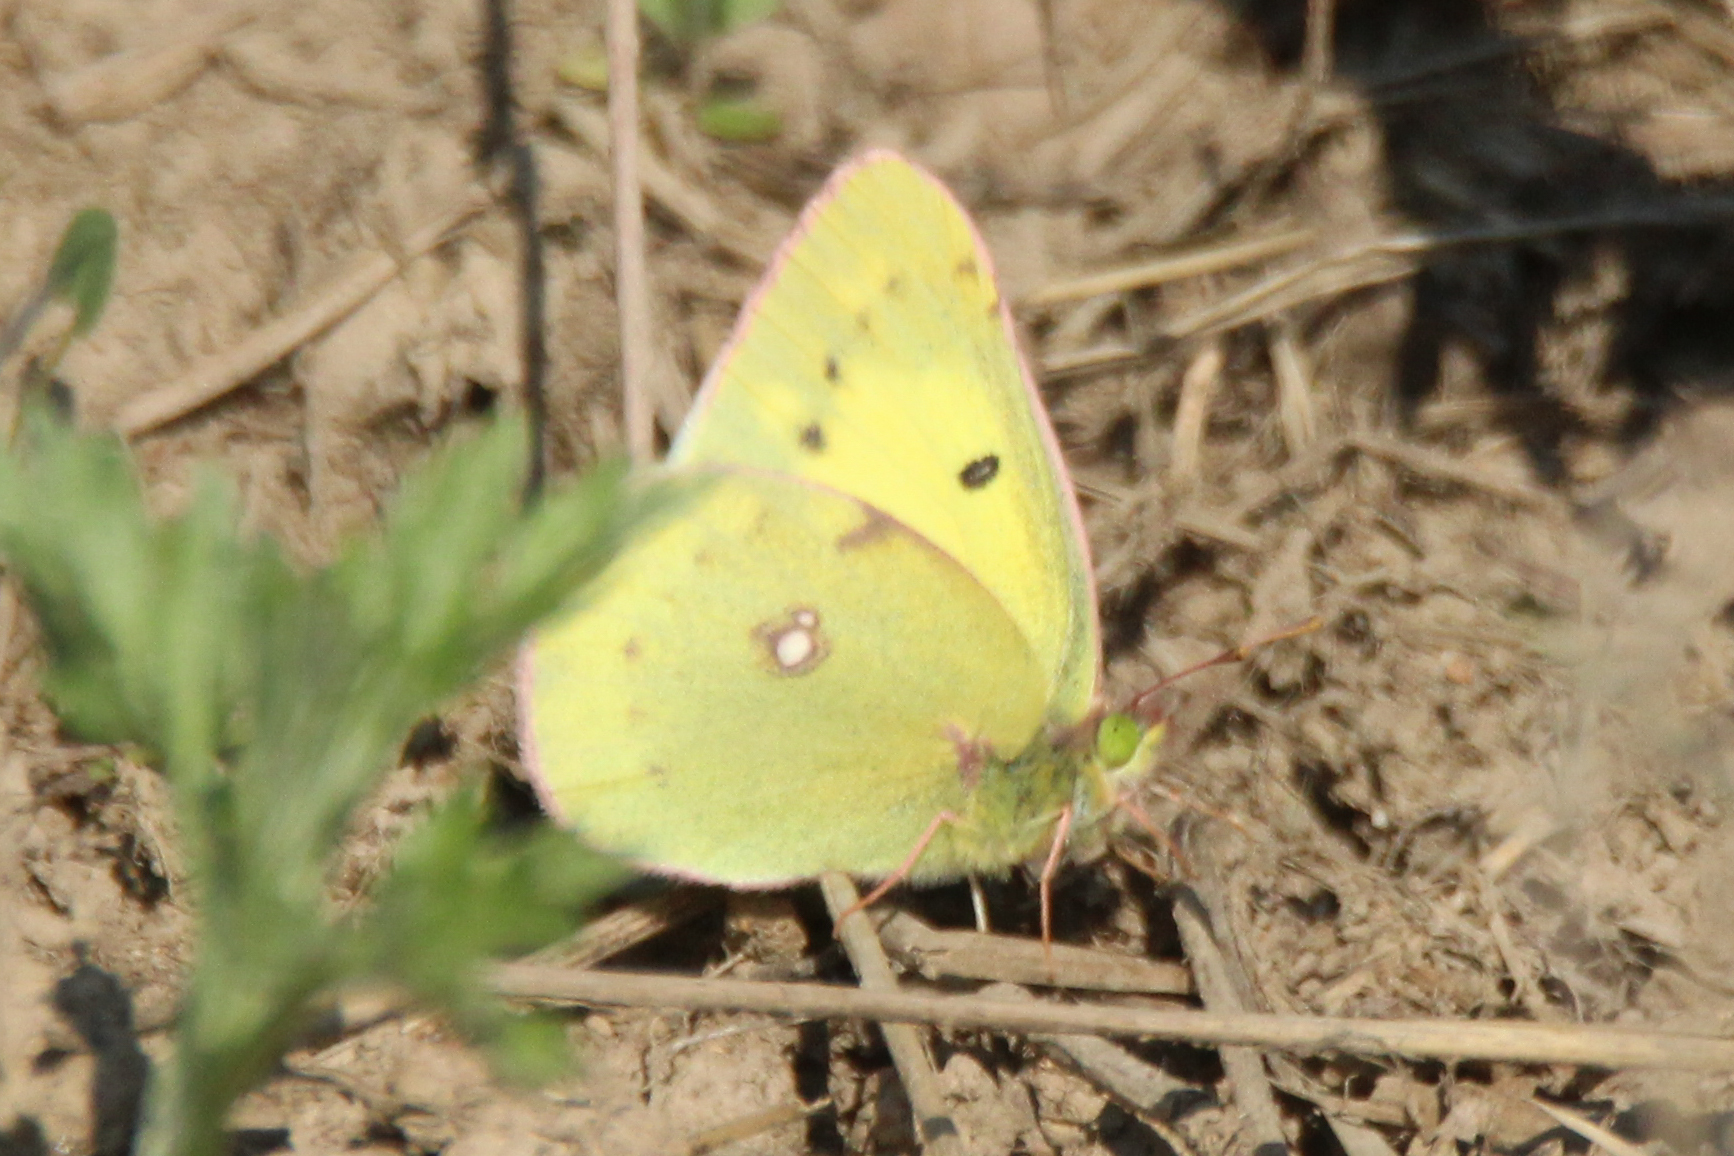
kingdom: Animalia
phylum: Arthropoda
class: Insecta
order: Lepidoptera
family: Pieridae
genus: Colias
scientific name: Colias poliographus
